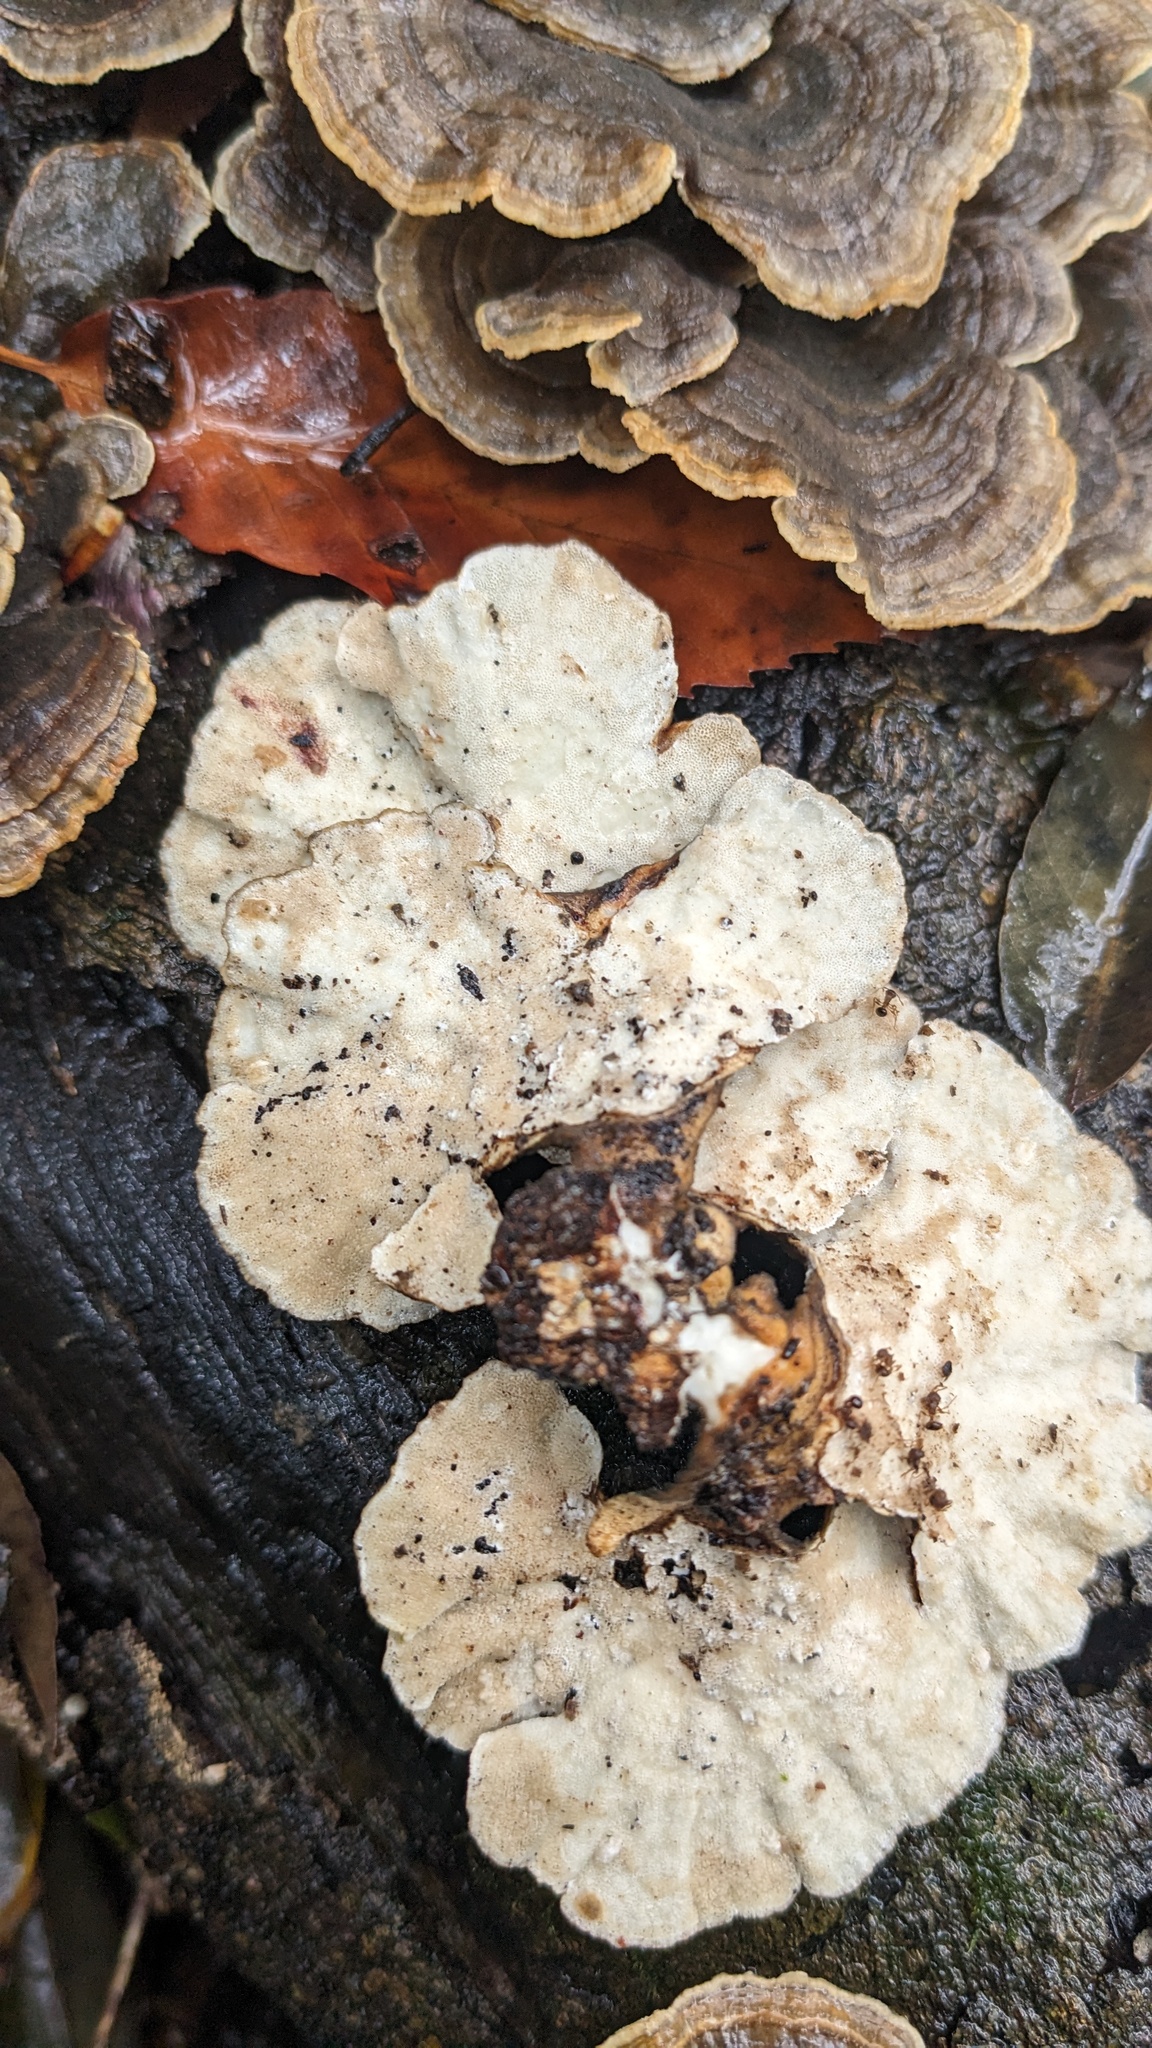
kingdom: Fungi
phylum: Basidiomycota
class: Agaricomycetes
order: Polyporales
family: Polyporaceae
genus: Trametes
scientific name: Trametes versicolor
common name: Turkeytail
